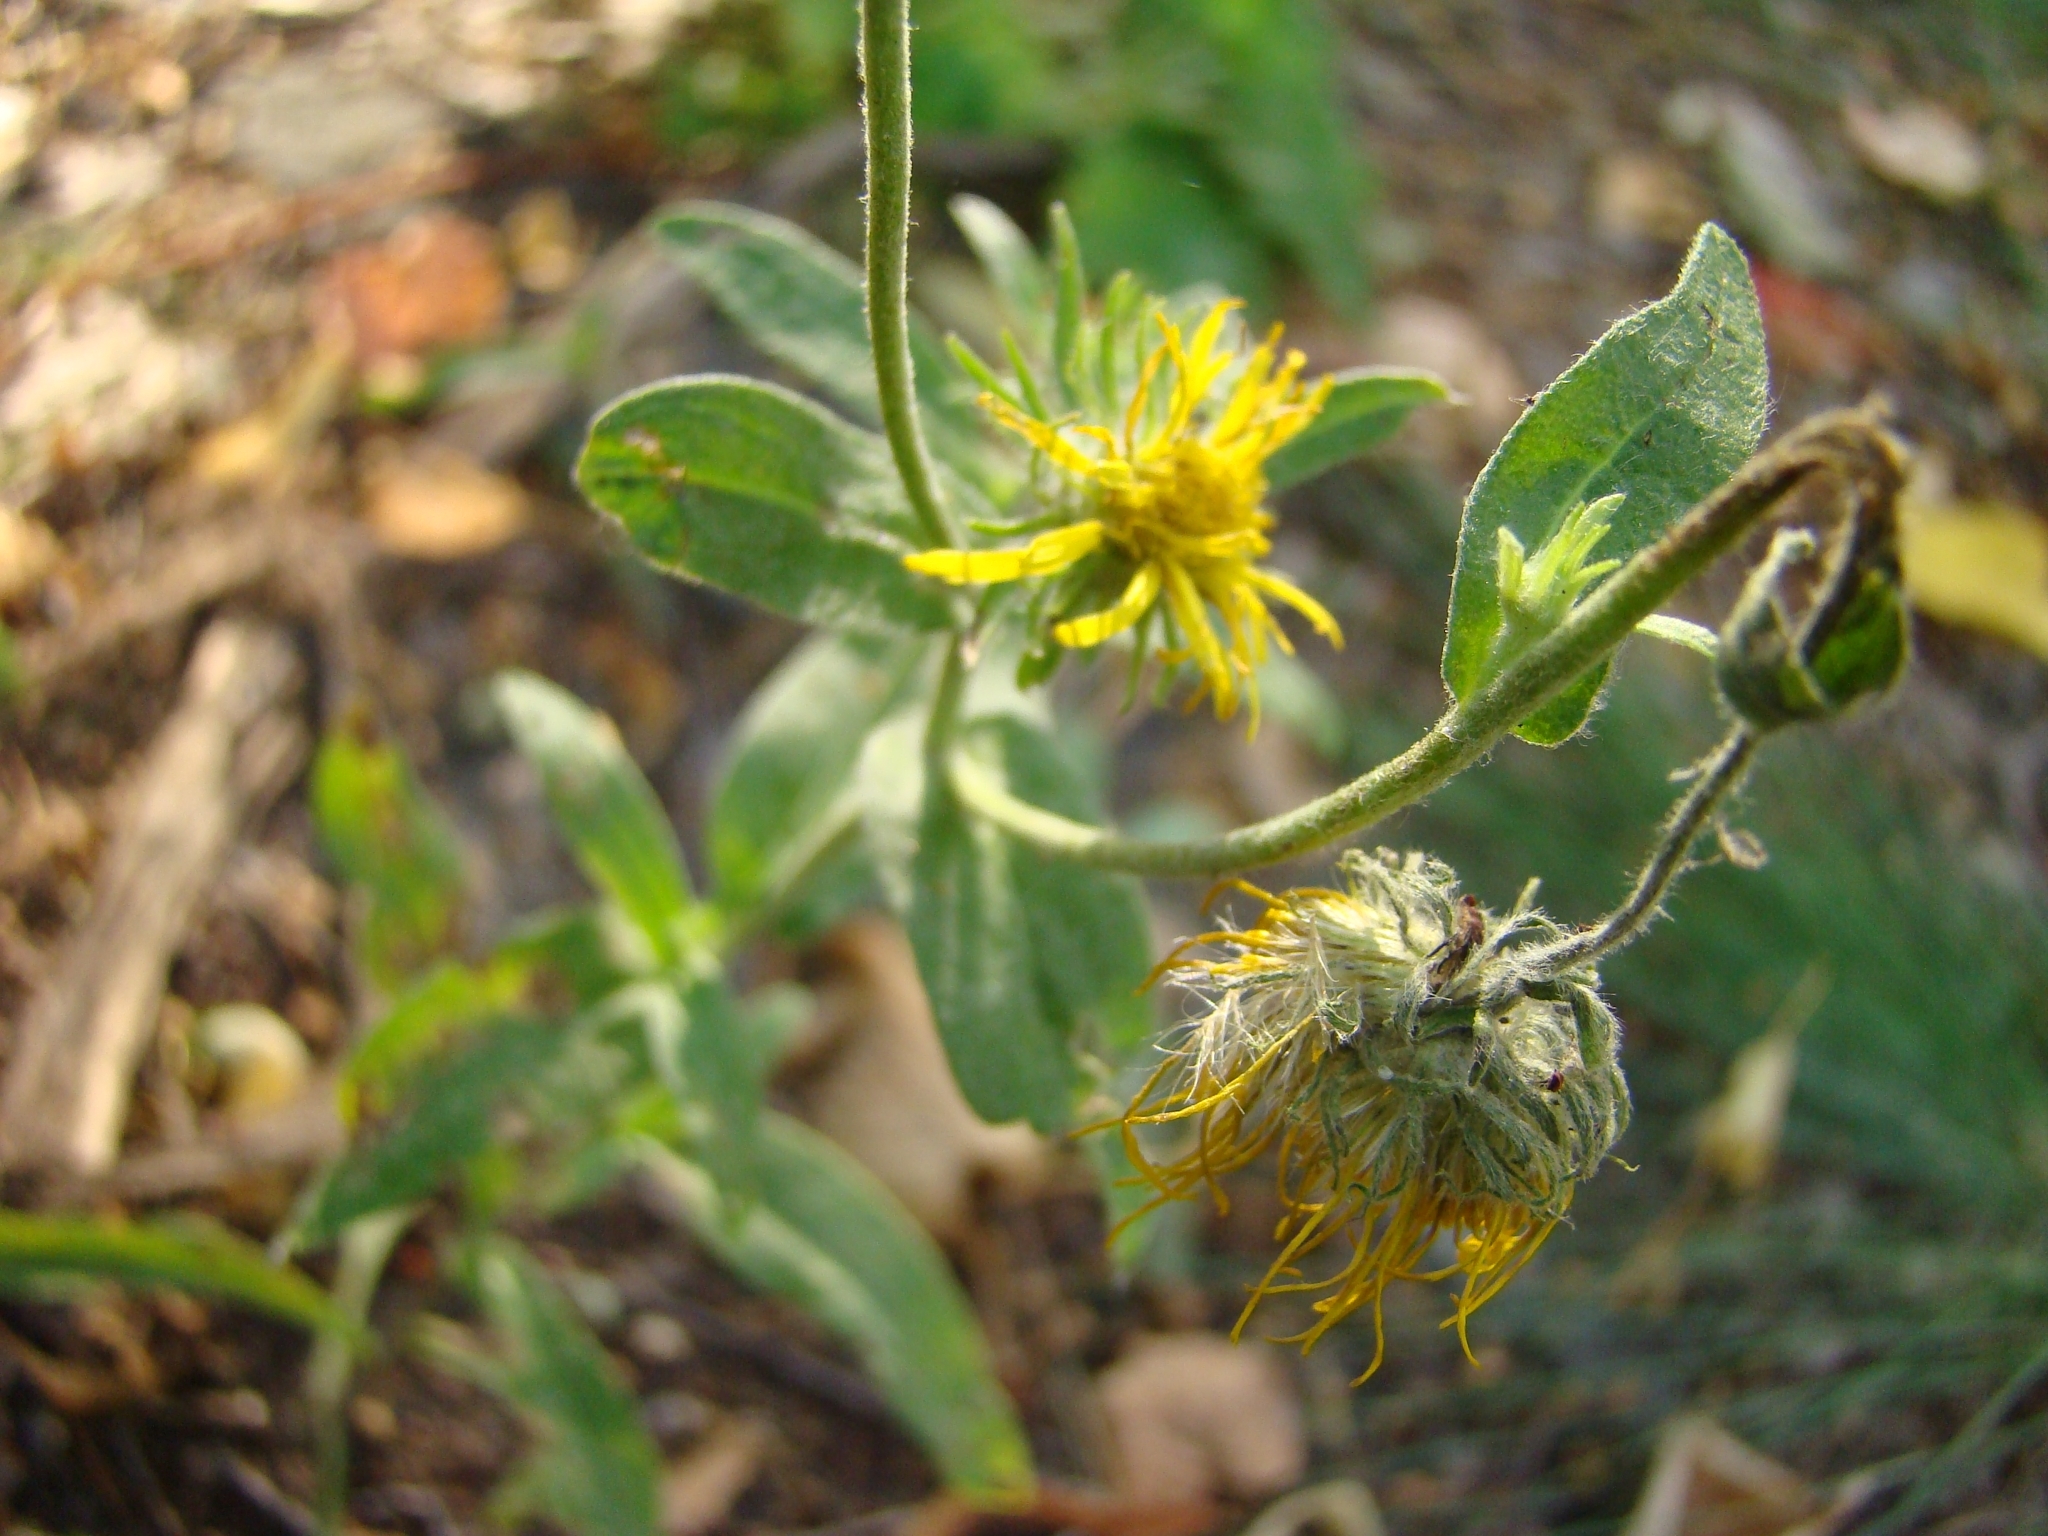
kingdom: Plantae
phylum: Tracheophyta
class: Magnoliopsida
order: Asterales
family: Asteraceae
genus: Pentanema
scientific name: Pentanema britannicum
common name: British elecampane
